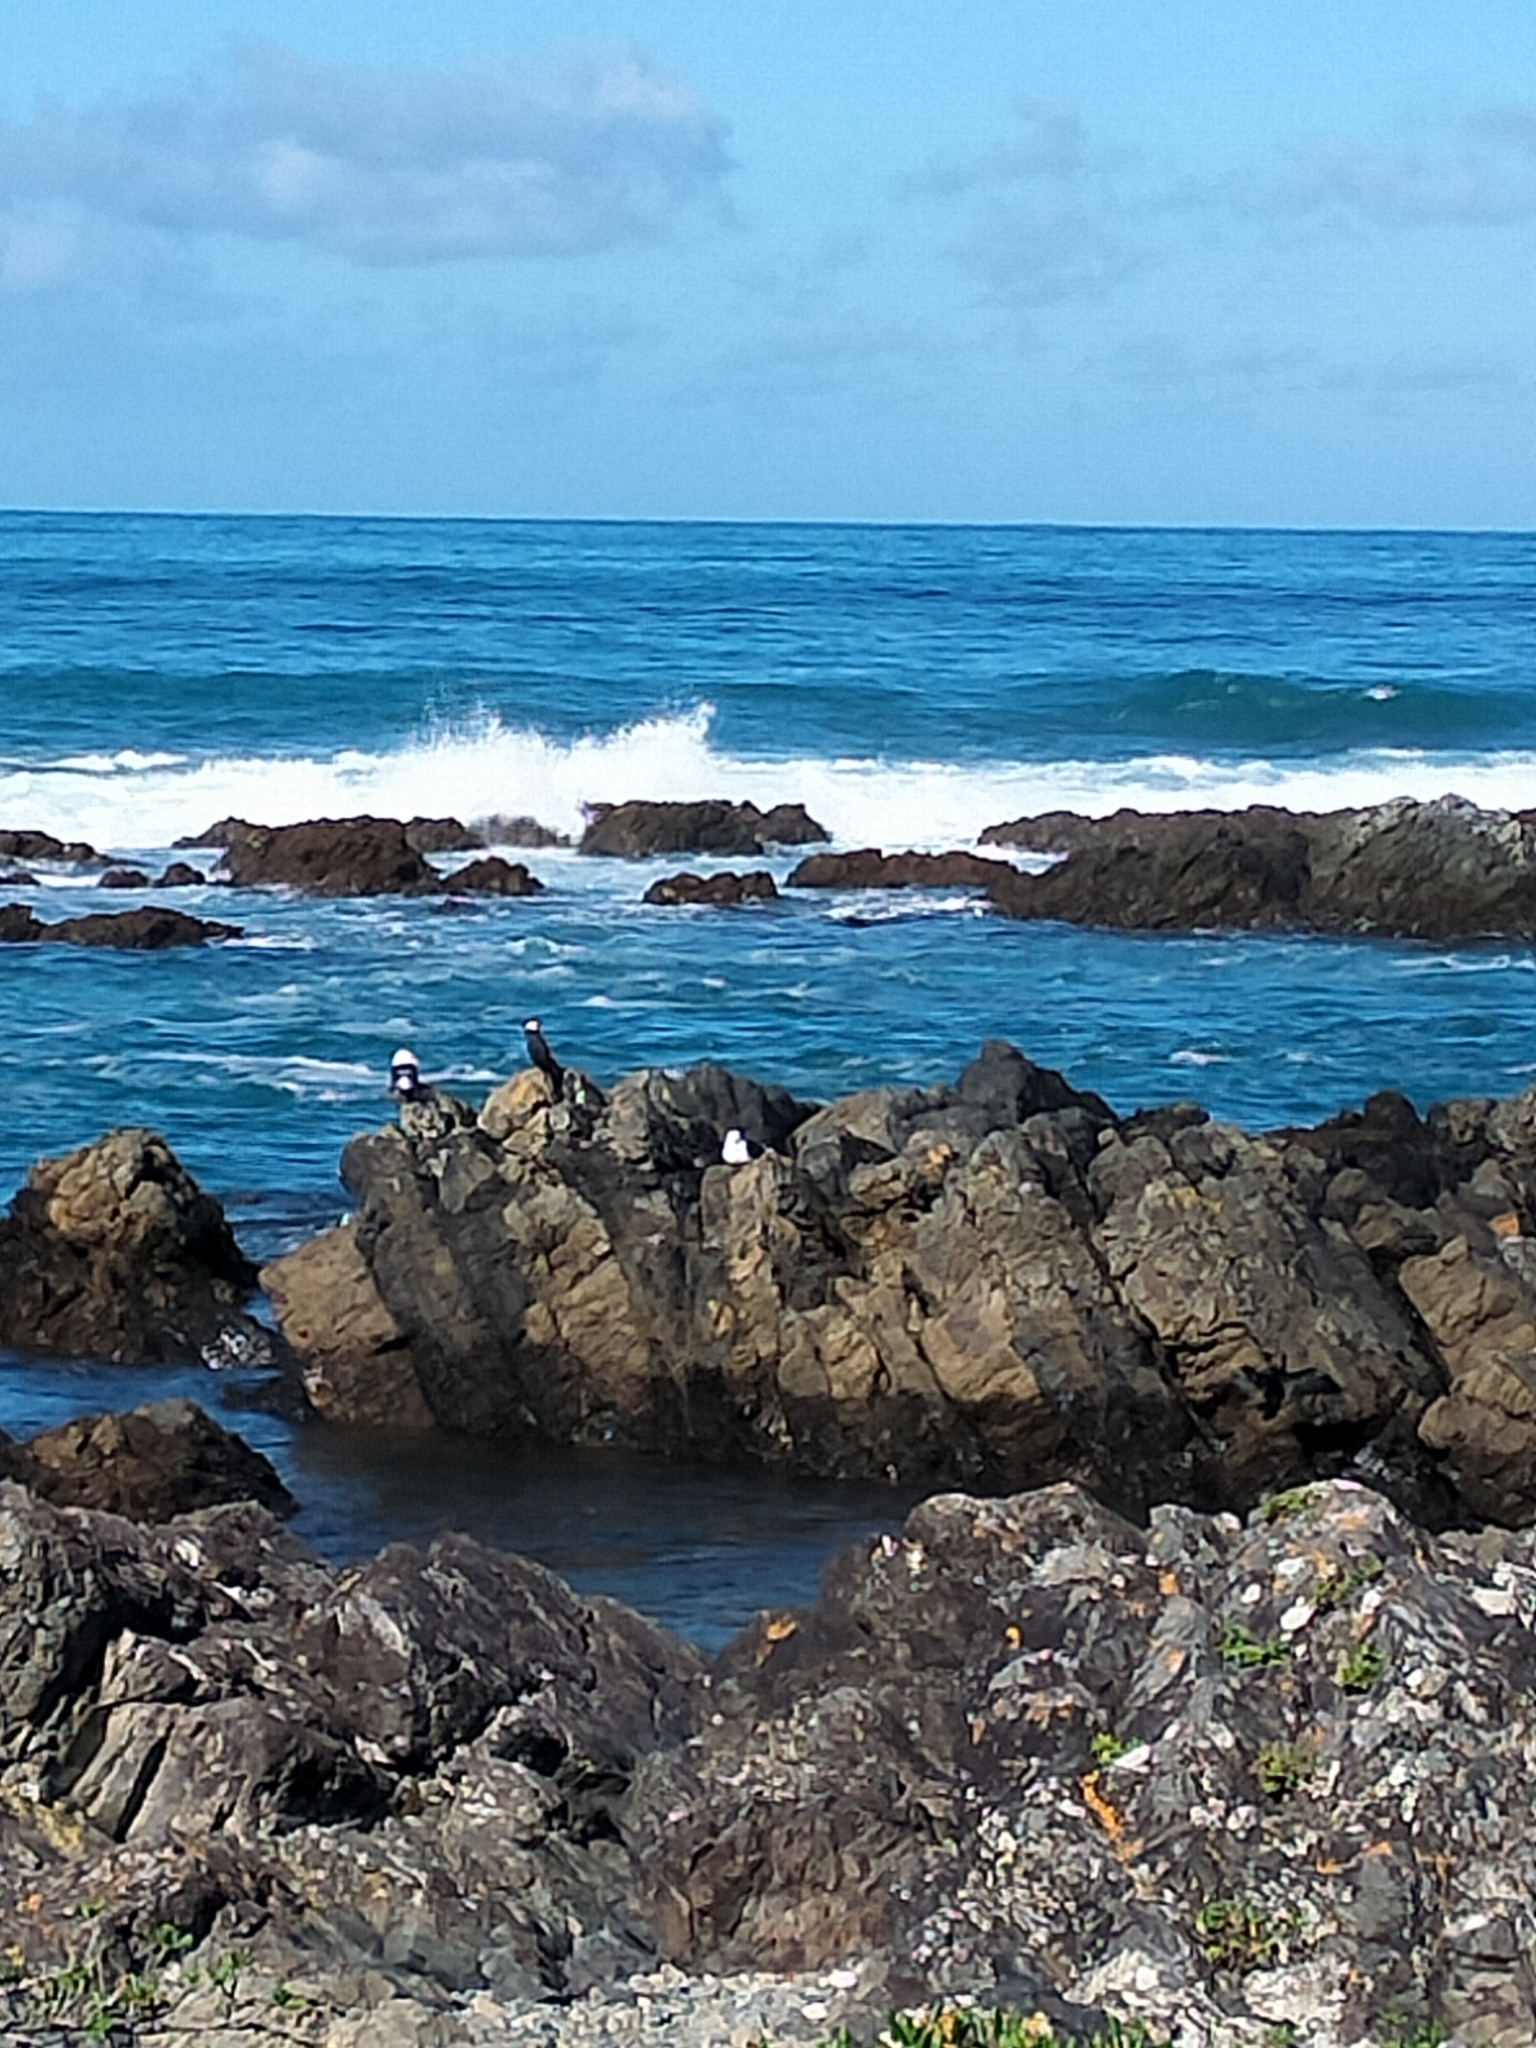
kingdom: Animalia
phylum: Chordata
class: Aves
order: Suliformes
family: Phalacrocoracidae
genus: Phalacrocorax
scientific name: Phalacrocorax varius
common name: Pied cormorant
